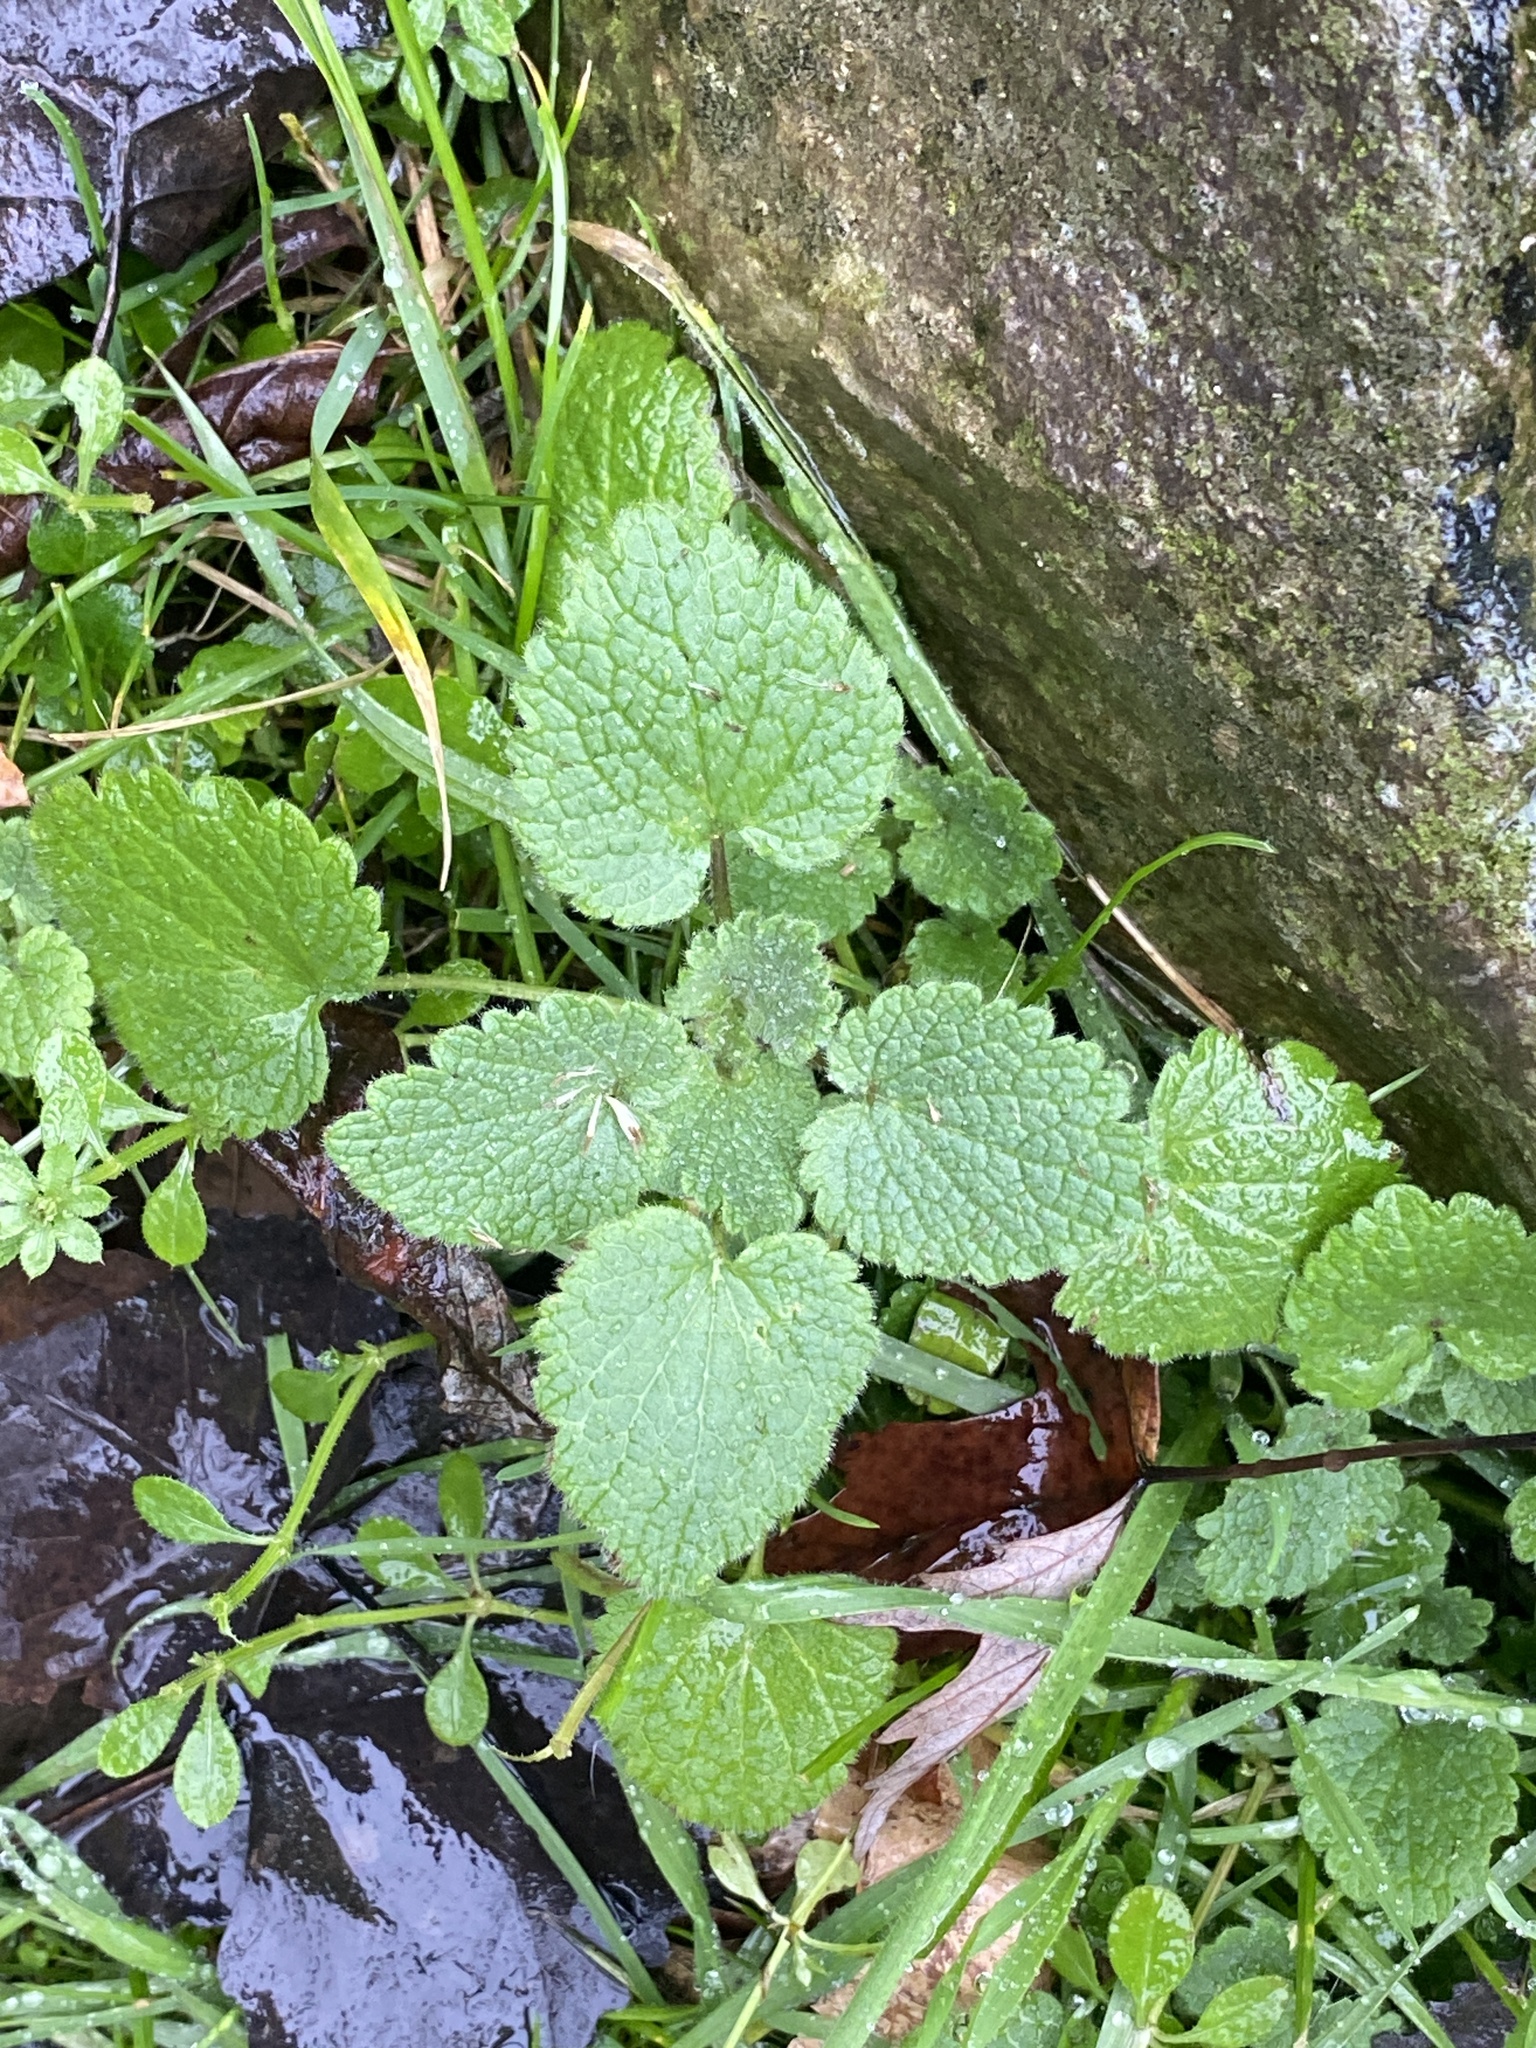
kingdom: Plantae
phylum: Tracheophyta
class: Magnoliopsida
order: Lamiales
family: Lamiaceae
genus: Lamium
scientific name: Lamium purpureum
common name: Red dead-nettle
